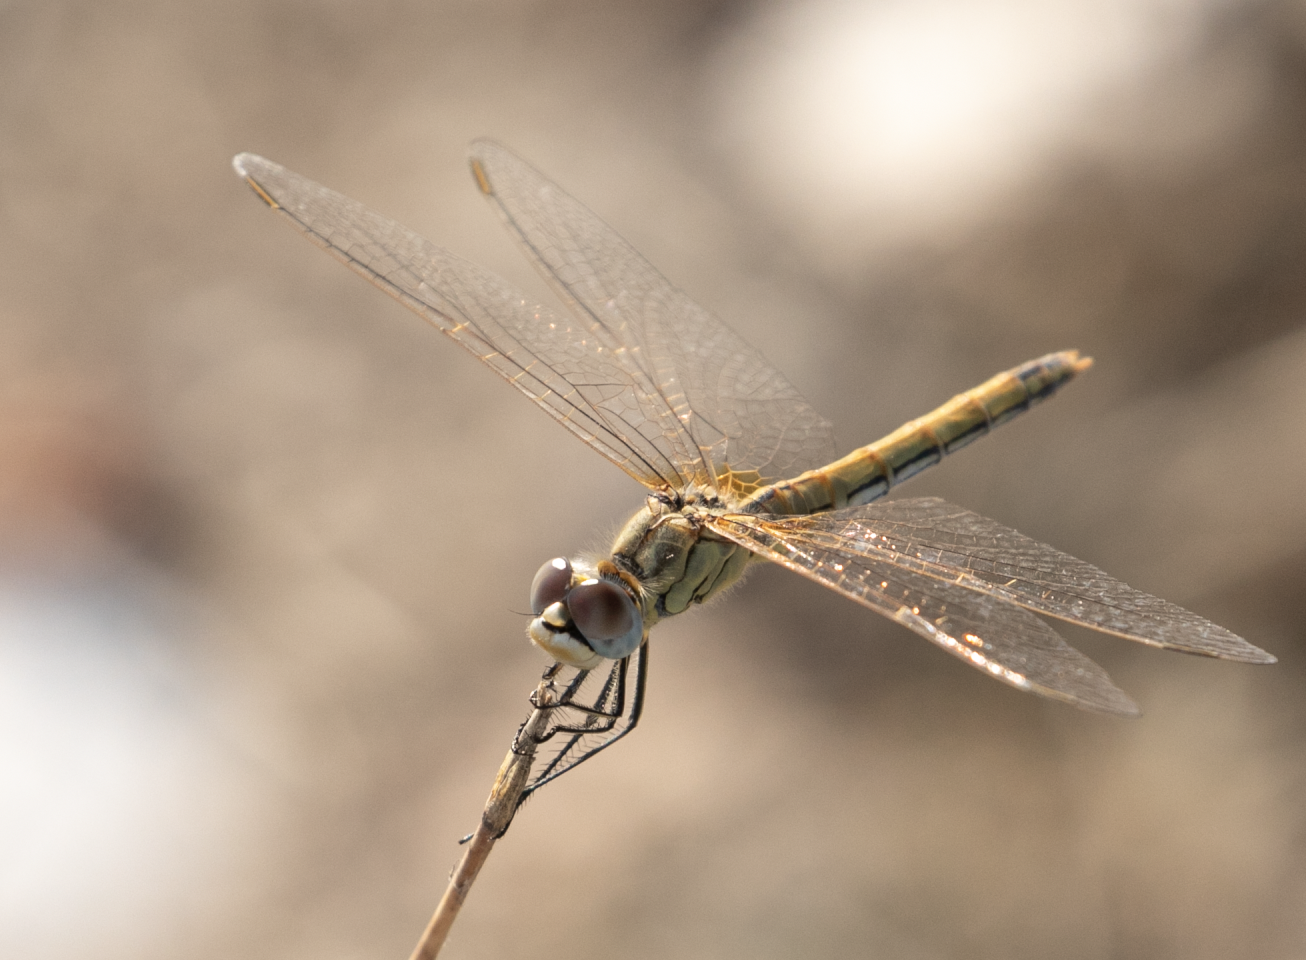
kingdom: Animalia
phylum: Arthropoda
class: Insecta
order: Odonata
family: Libellulidae
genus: Sympetrum
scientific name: Sympetrum fonscolombii
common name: Red-veined darter
